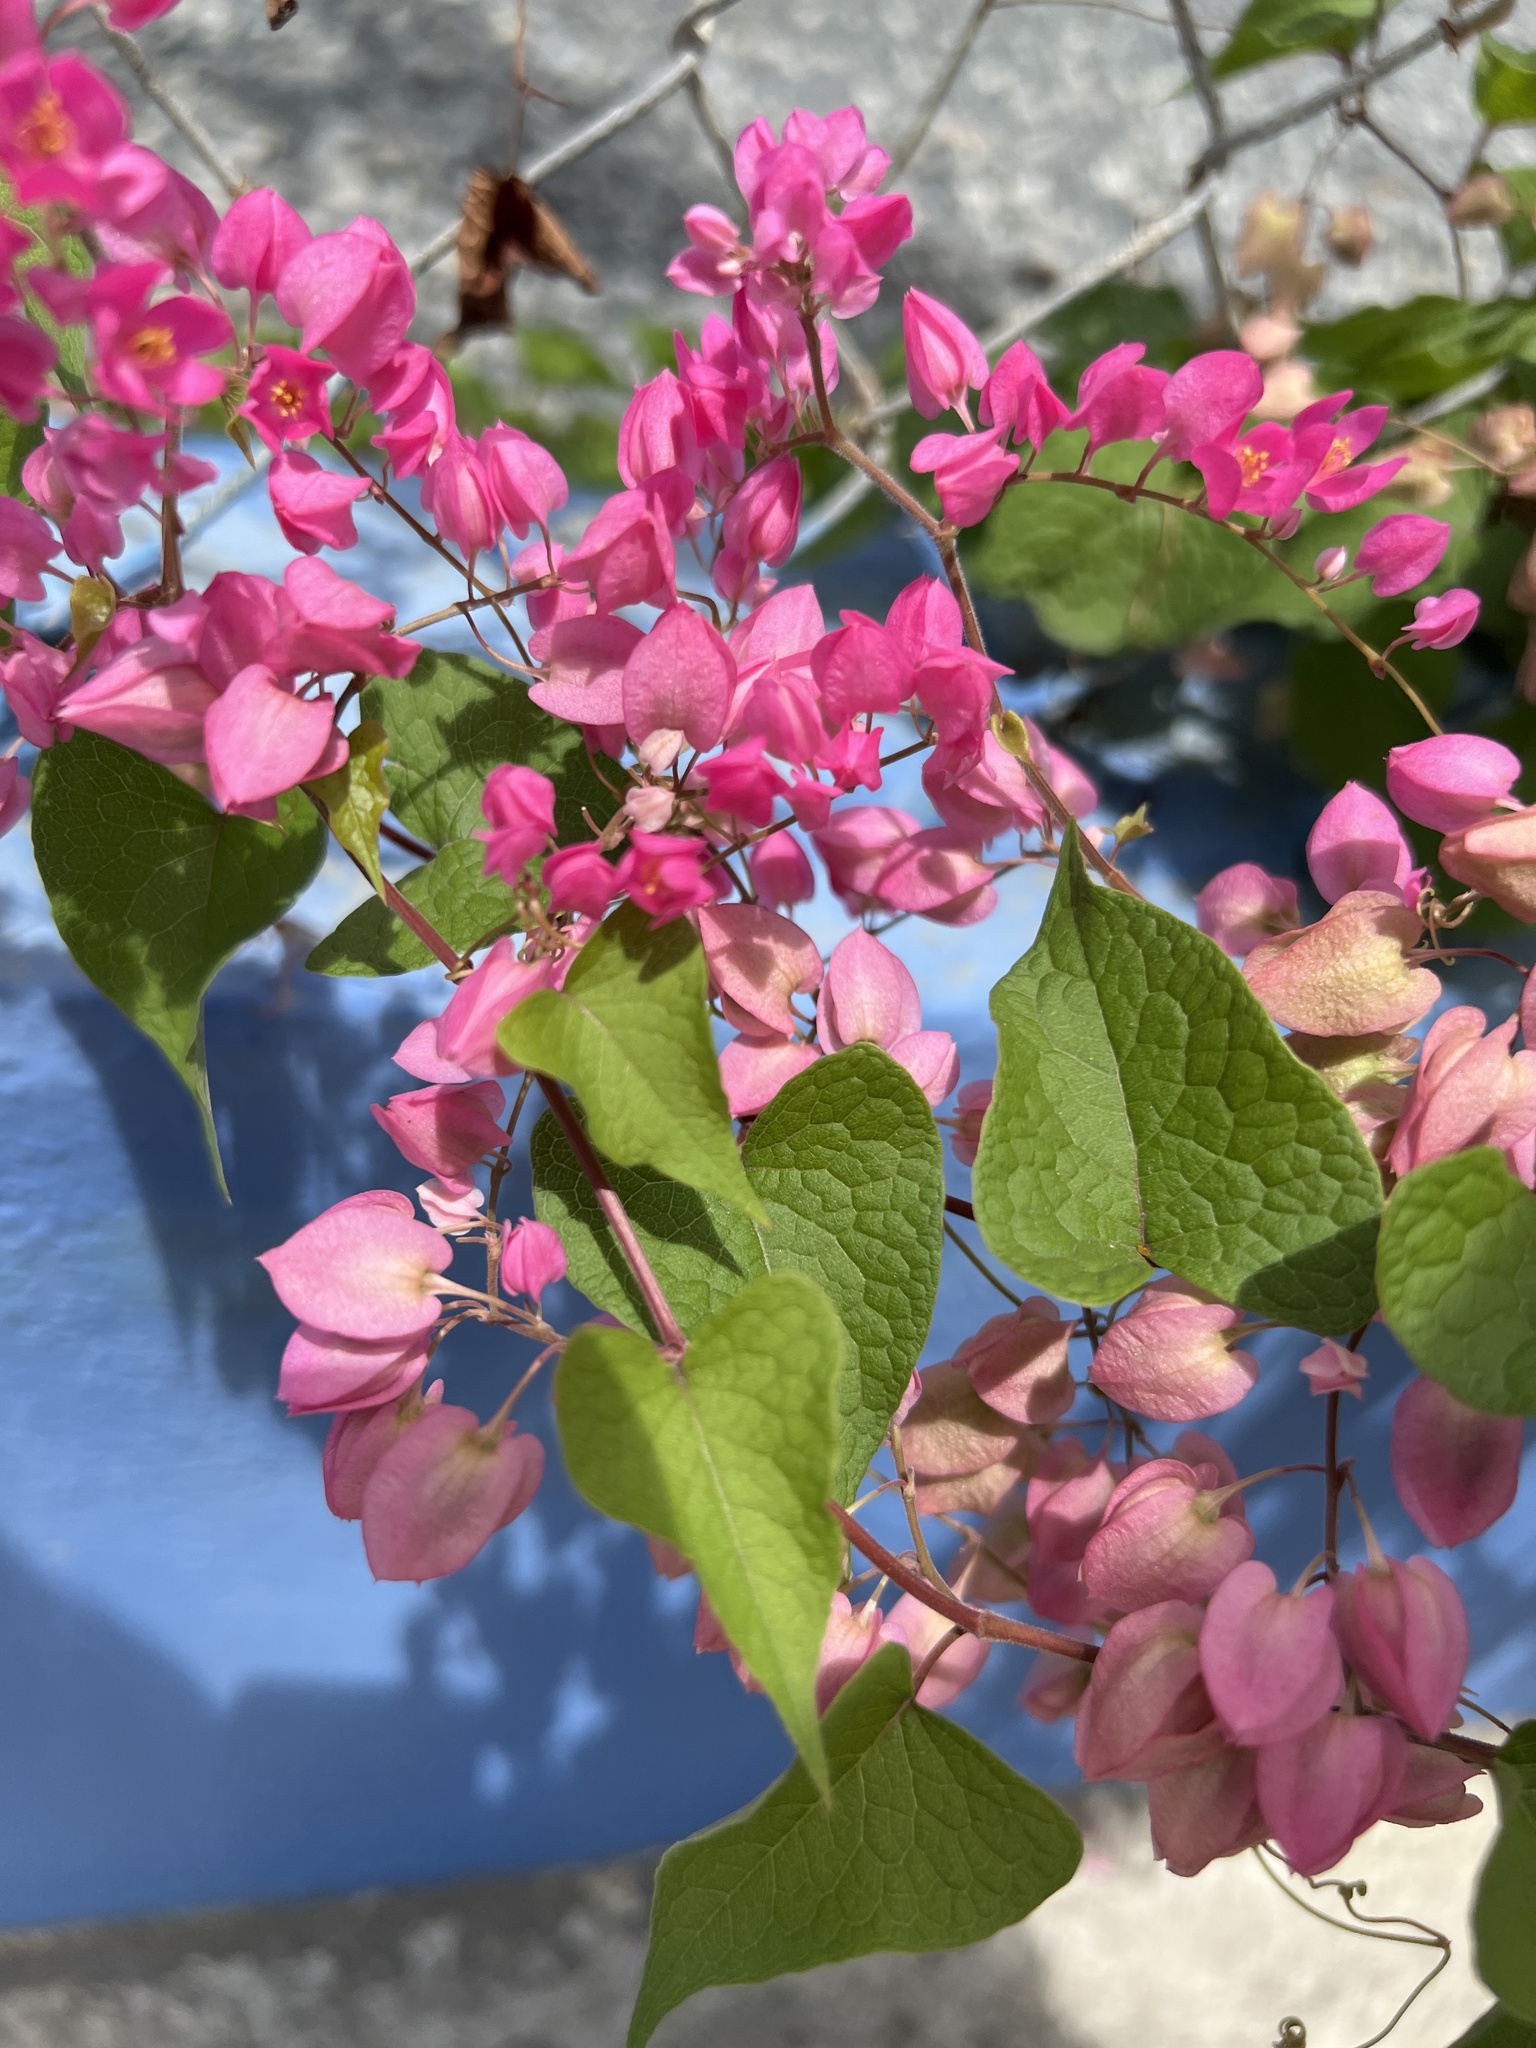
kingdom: Plantae
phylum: Tracheophyta
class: Magnoliopsida
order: Caryophyllales
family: Polygonaceae
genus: Antigonon
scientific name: Antigonon leptopus
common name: Coral vine
